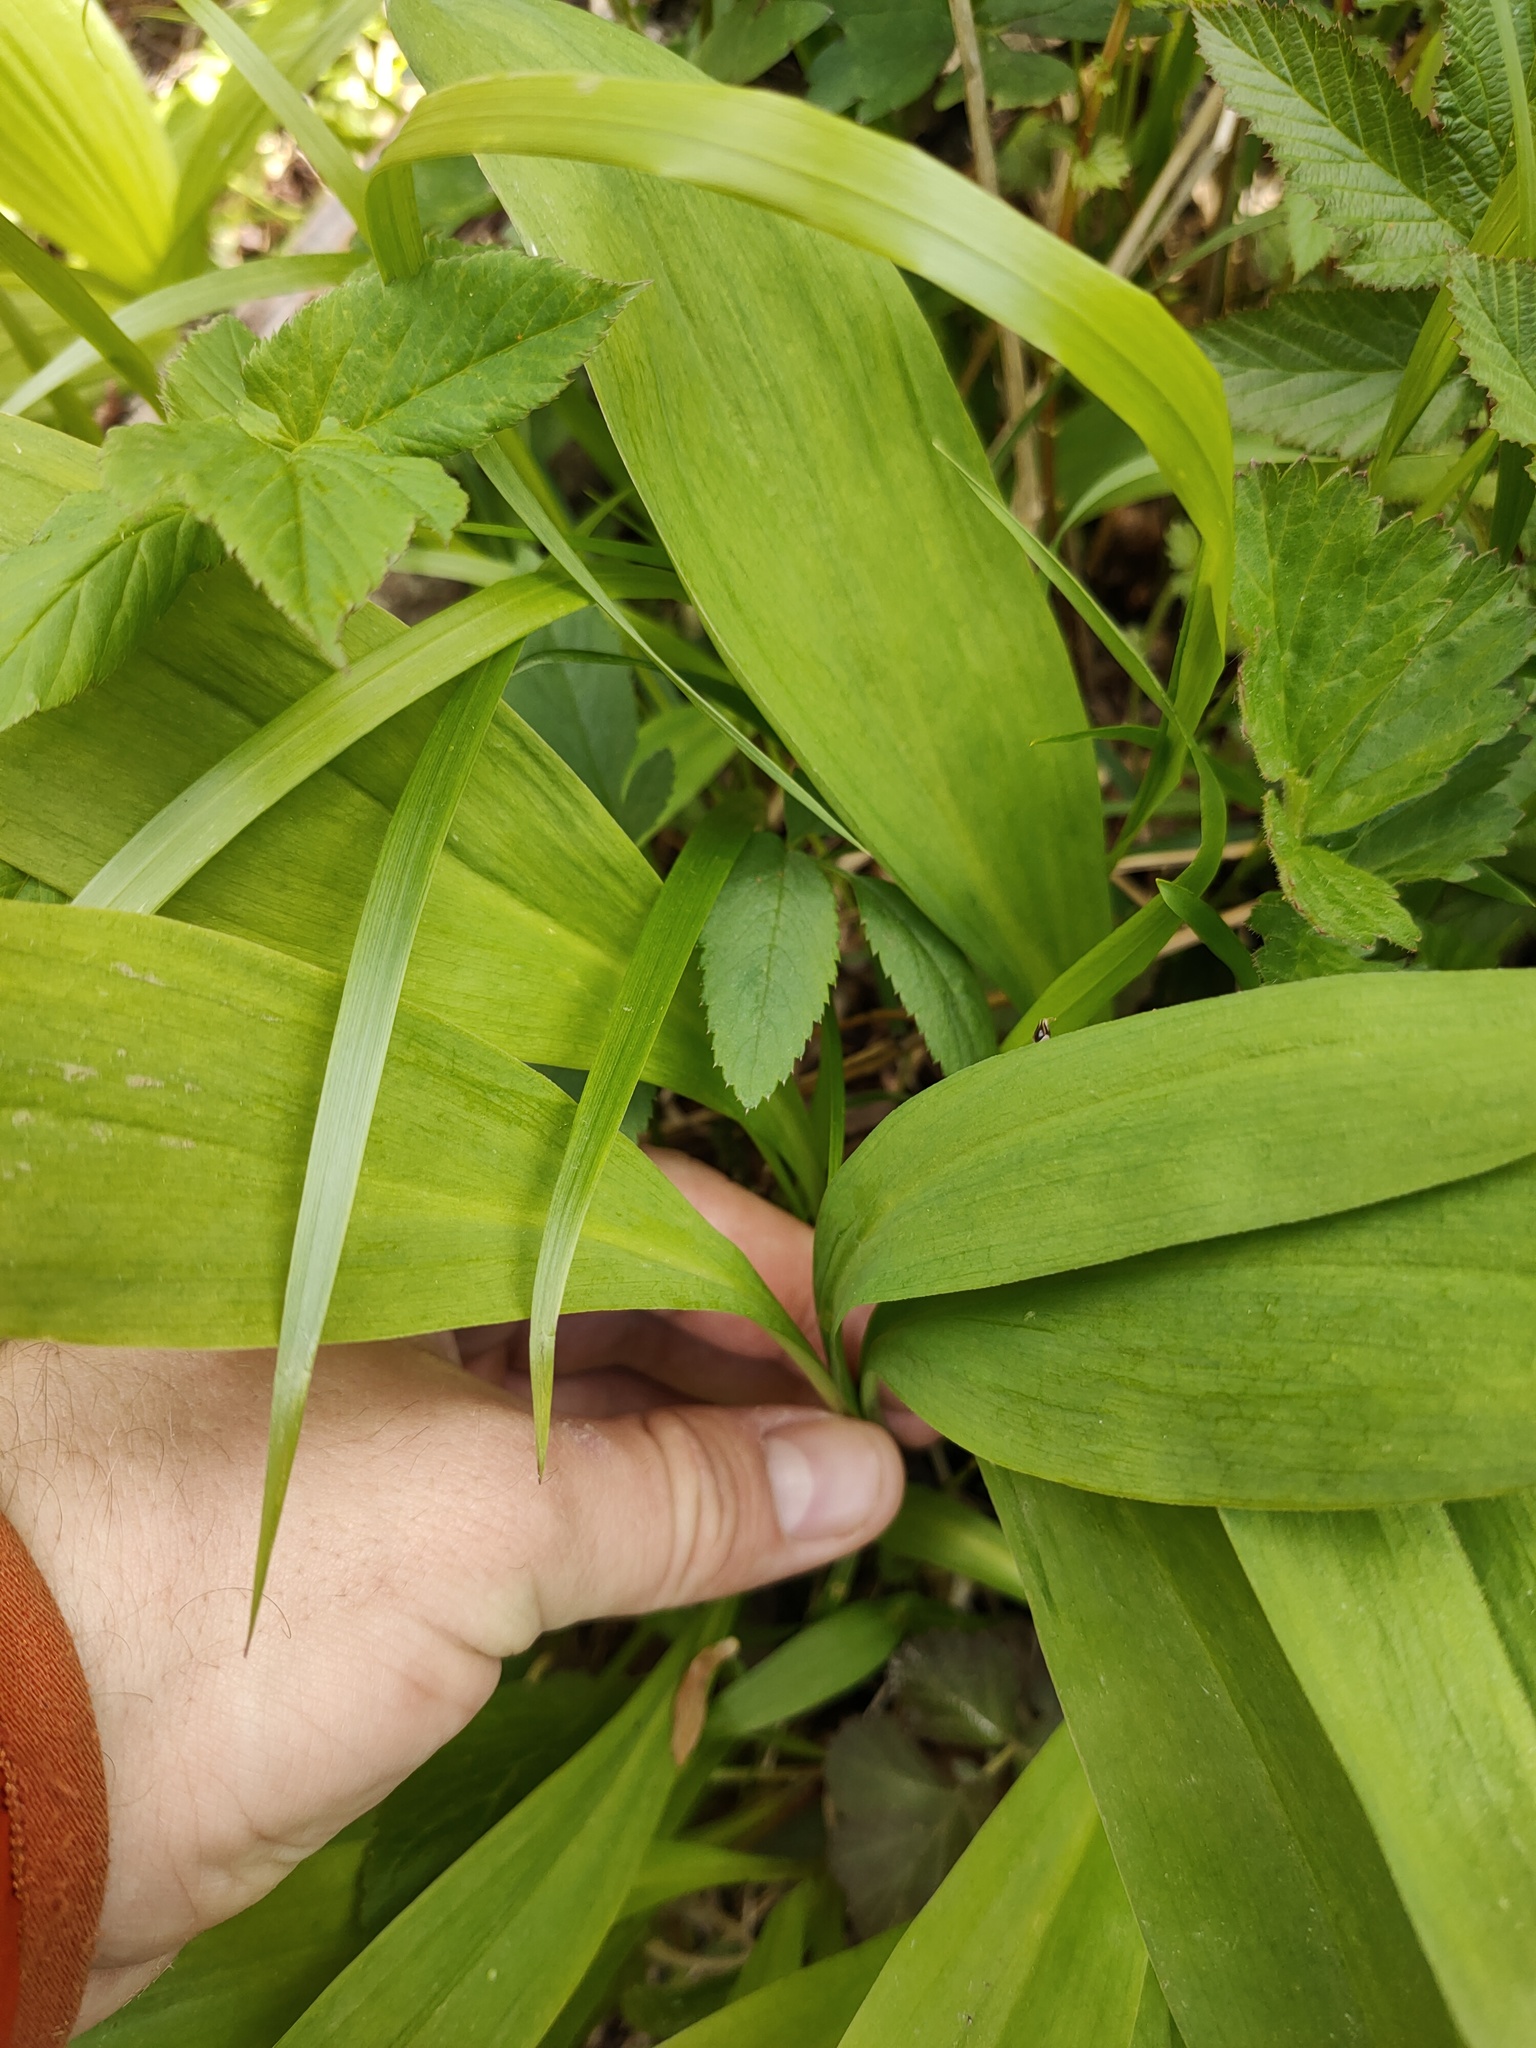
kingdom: Plantae
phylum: Tracheophyta
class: Liliopsida
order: Asparagales
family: Amaryllidaceae
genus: Allium
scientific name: Allium microdictyon
